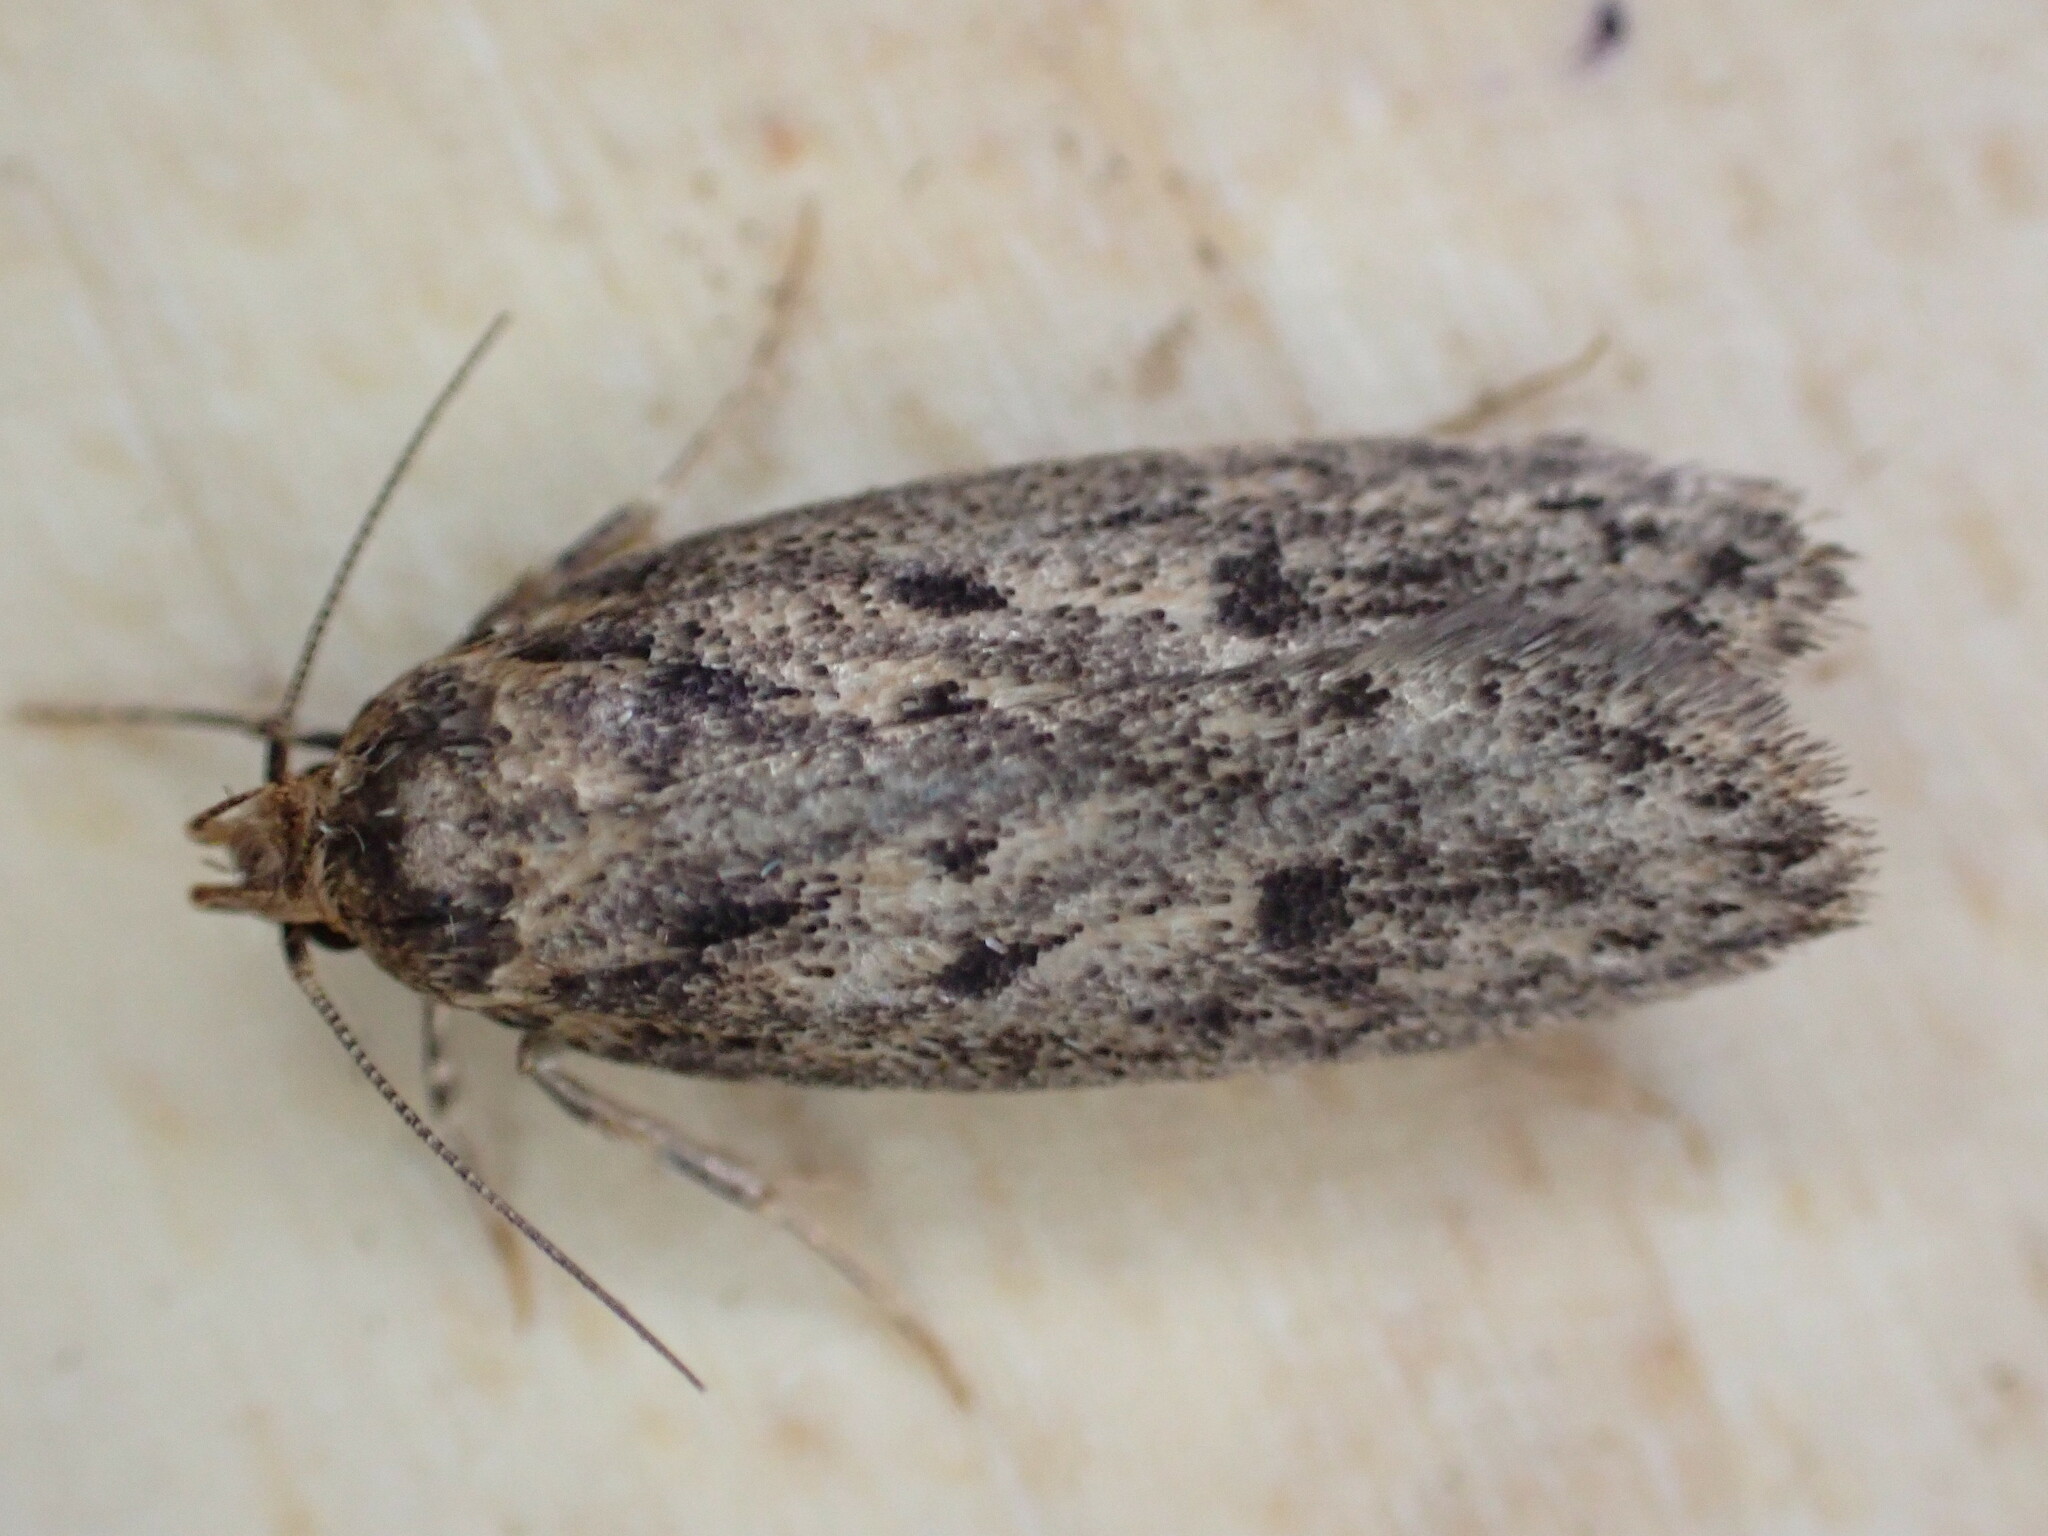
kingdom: Animalia
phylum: Arthropoda
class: Insecta
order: Lepidoptera
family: Oecophoridae
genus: Hofmannophila
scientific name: Hofmannophila pseudospretella
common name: Brown house moth
